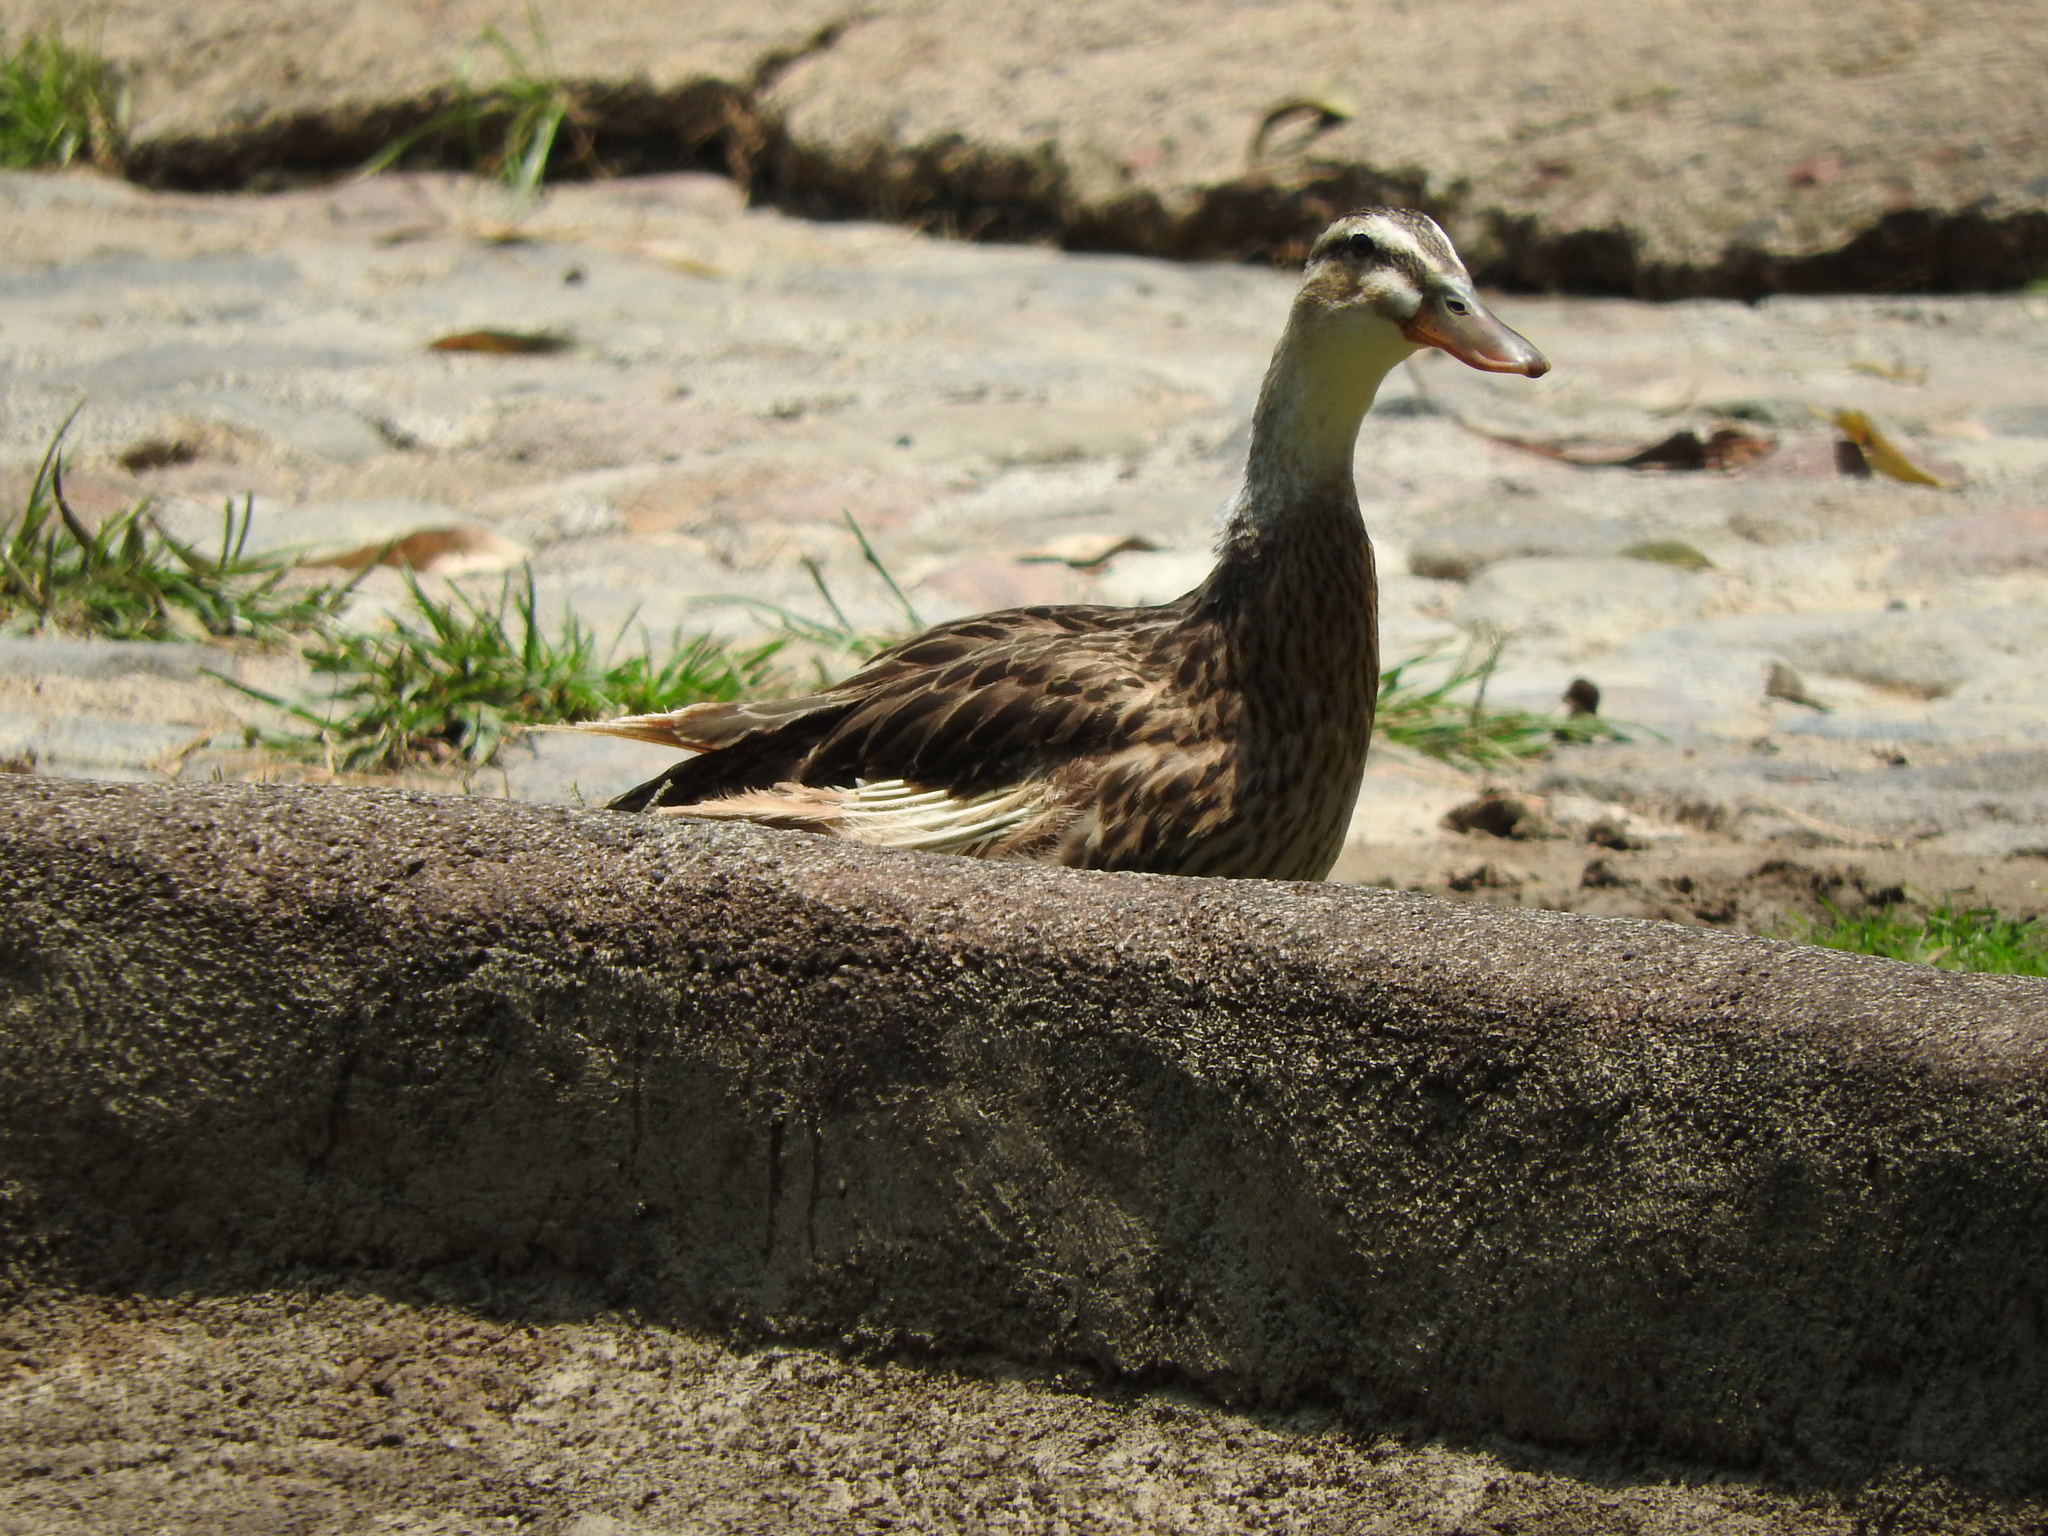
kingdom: Animalia
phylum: Chordata
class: Aves
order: Anseriformes
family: Anatidae
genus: Anas
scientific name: Anas platyrhynchos
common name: Mallard
